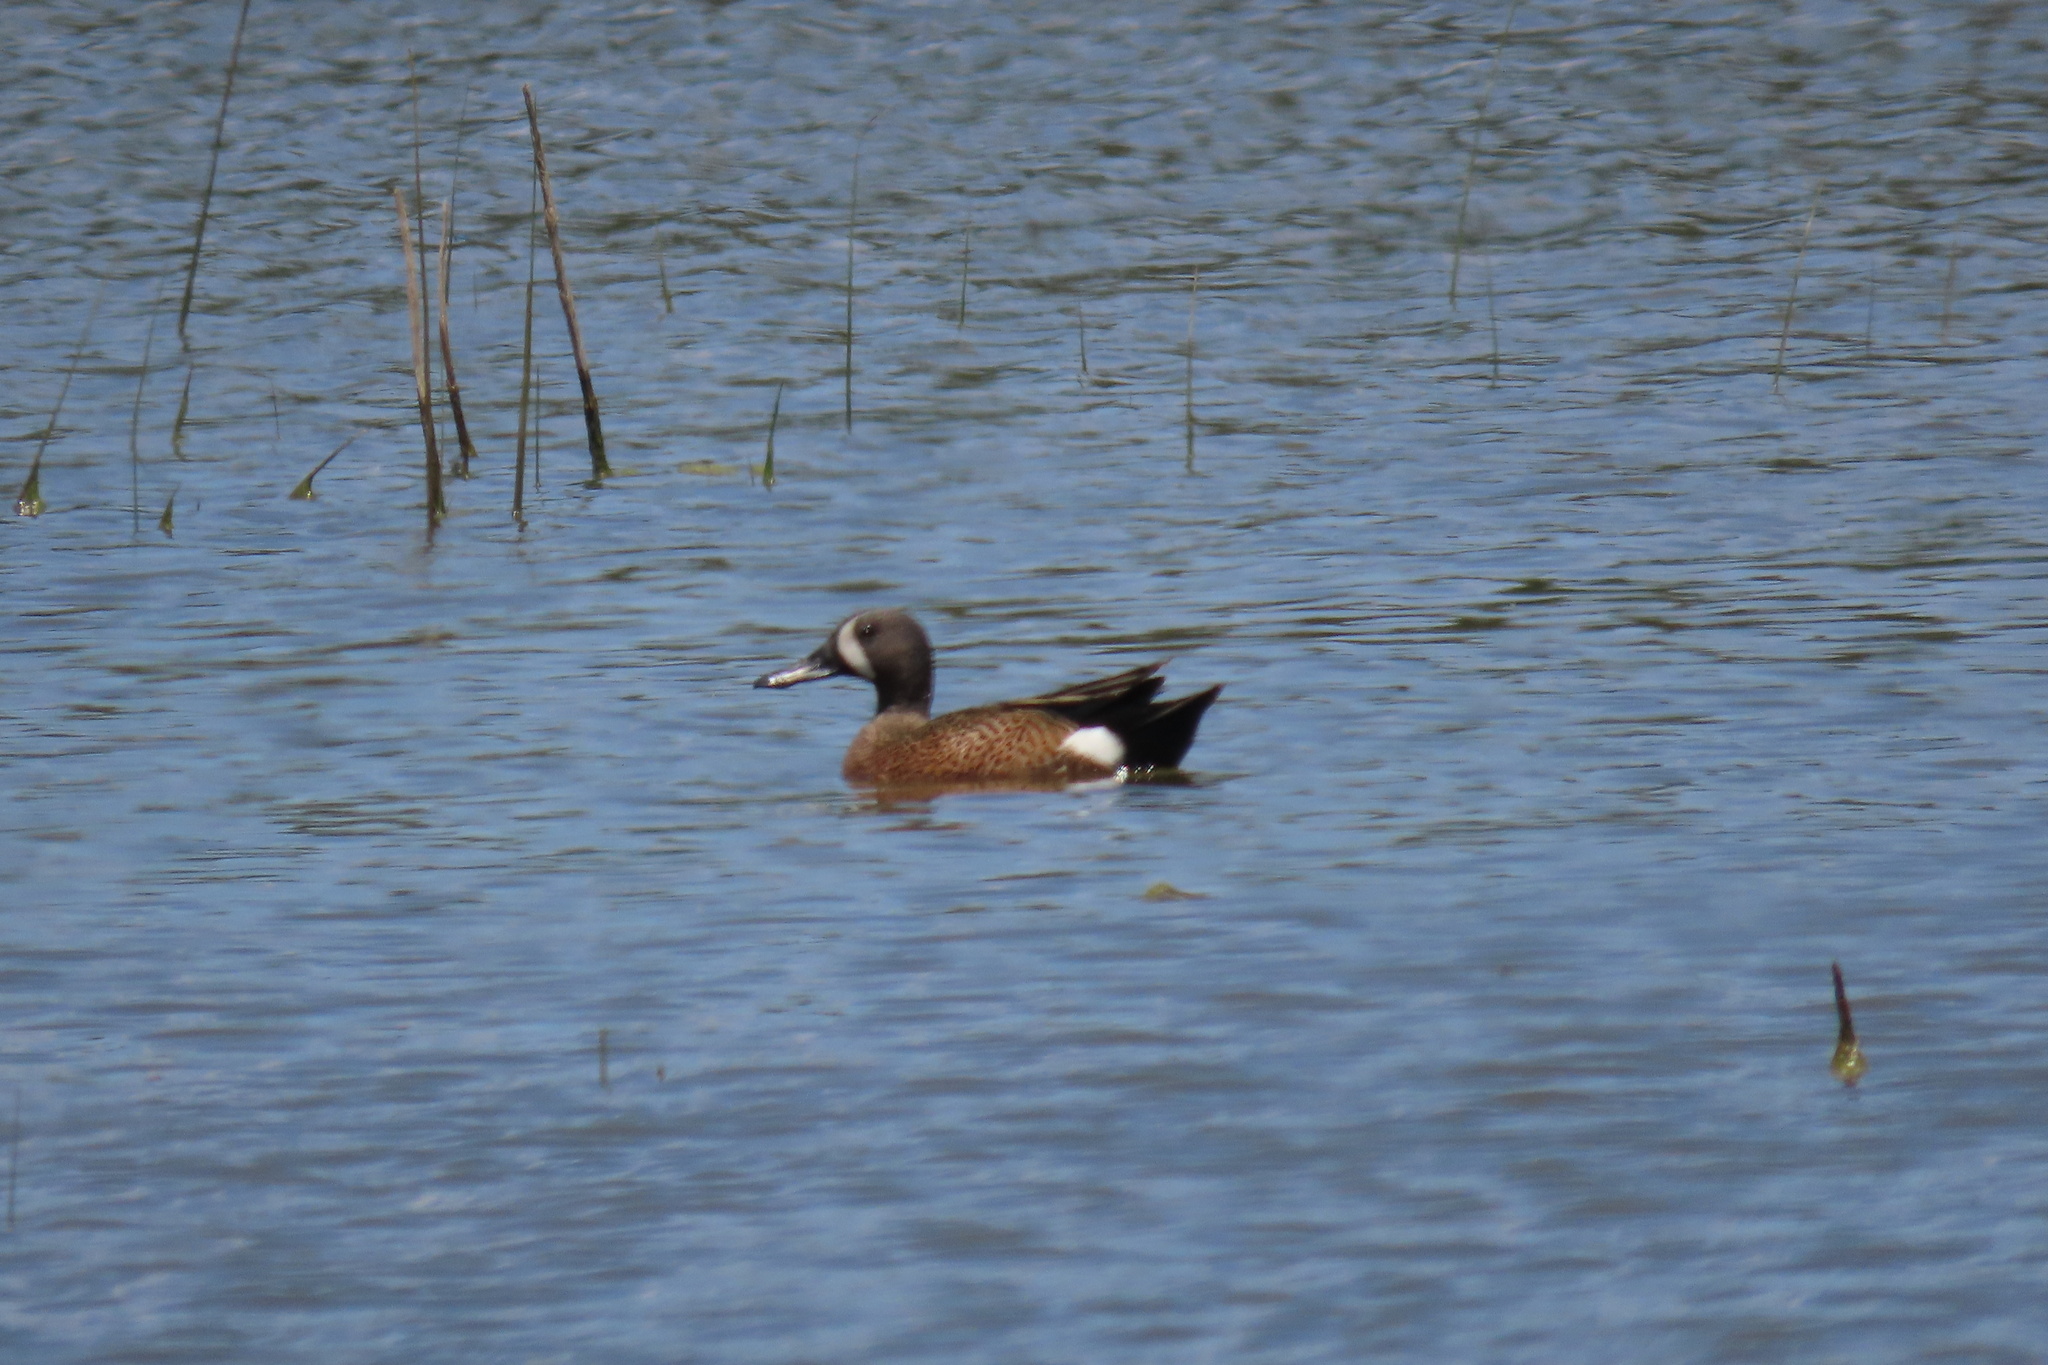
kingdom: Animalia
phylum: Chordata
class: Aves
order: Anseriformes
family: Anatidae
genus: Spatula
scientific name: Spatula discors
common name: Blue-winged teal
